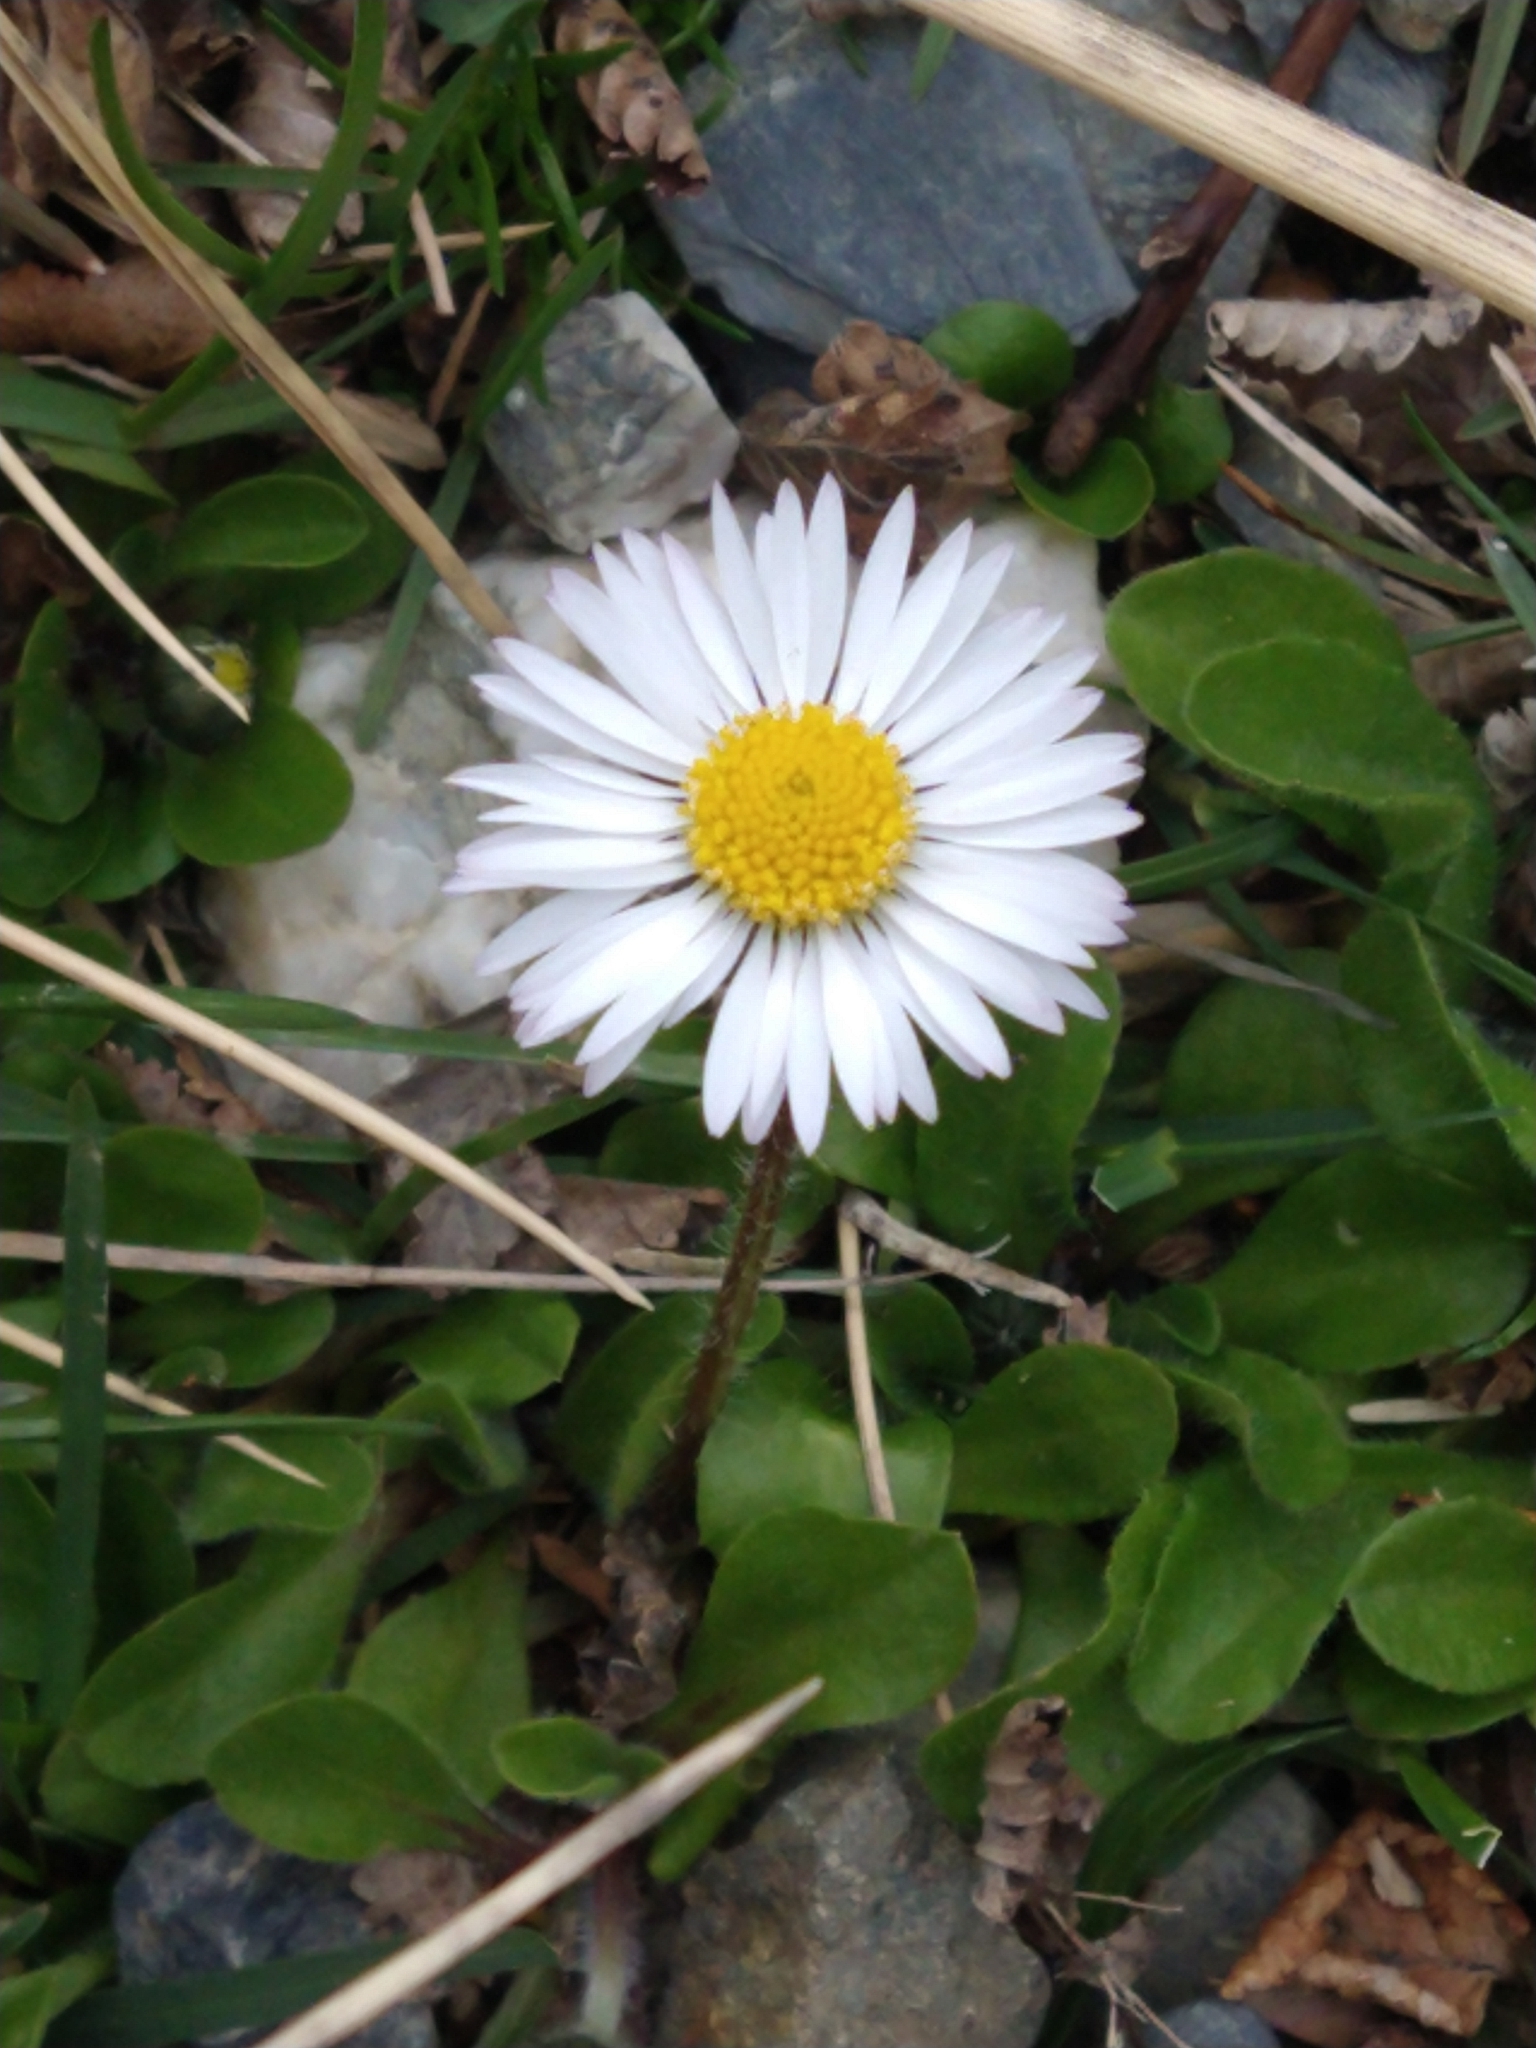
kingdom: Plantae
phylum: Tracheophyta
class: Magnoliopsida
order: Asterales
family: Asteraceae
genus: Bellis
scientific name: Bellis perennis
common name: Lawndaisy
